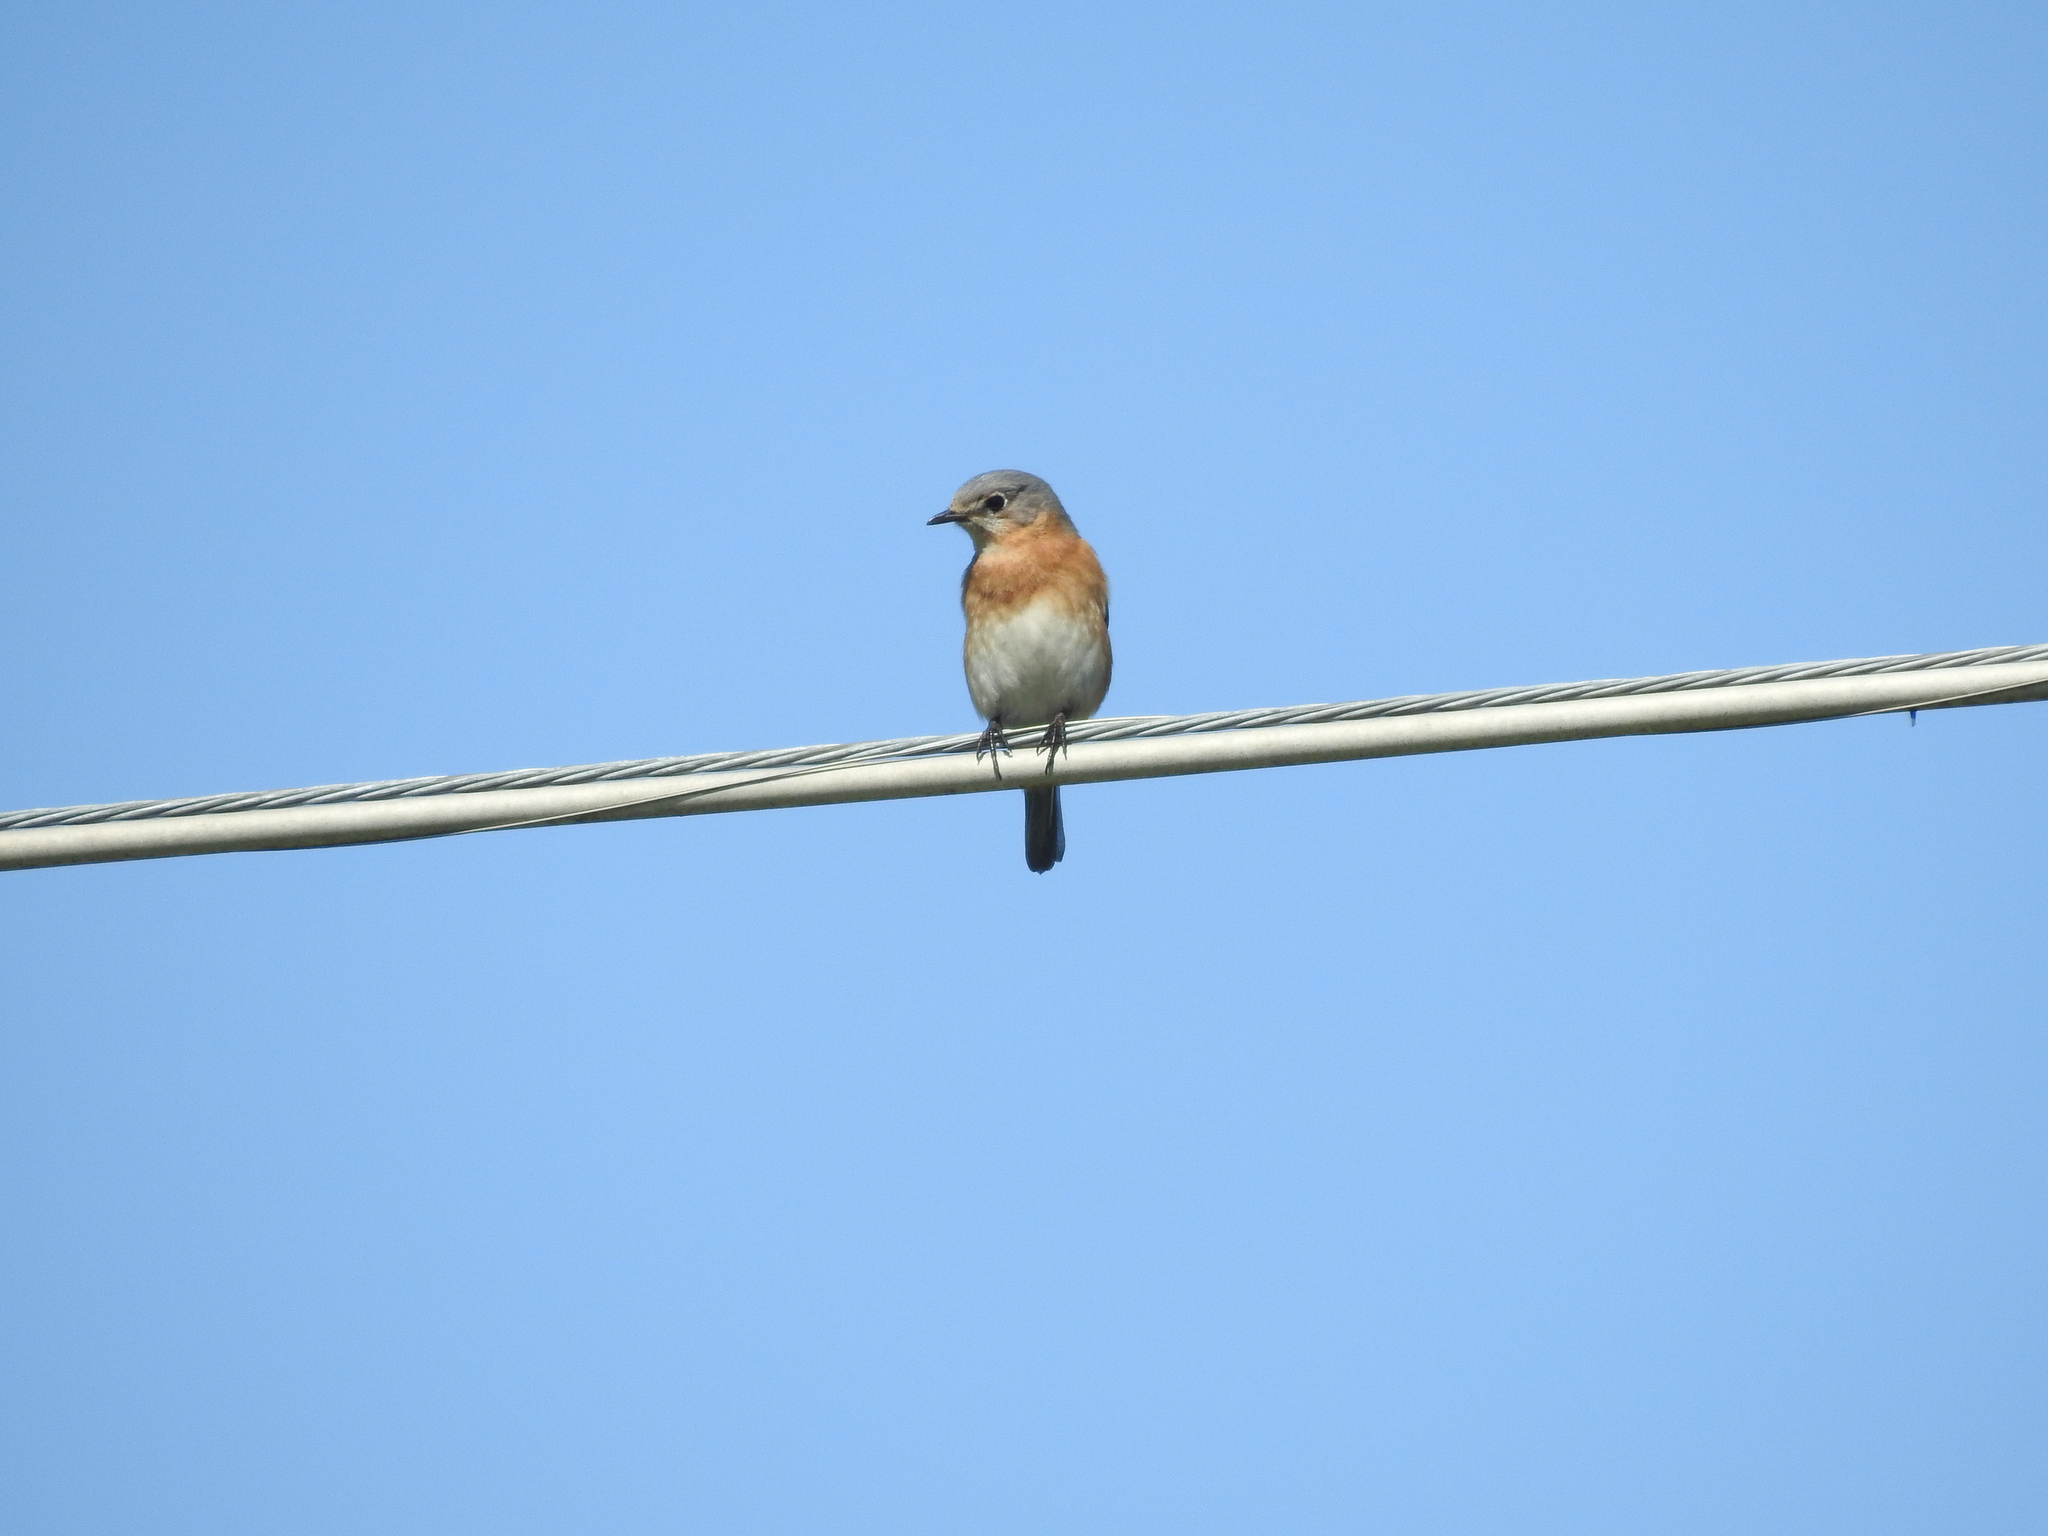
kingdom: Animalia
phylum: Chordata
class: Aves
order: Passeriformes
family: Turdidae
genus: Sialia
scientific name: Sialia sialis
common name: Eastern bluebird
